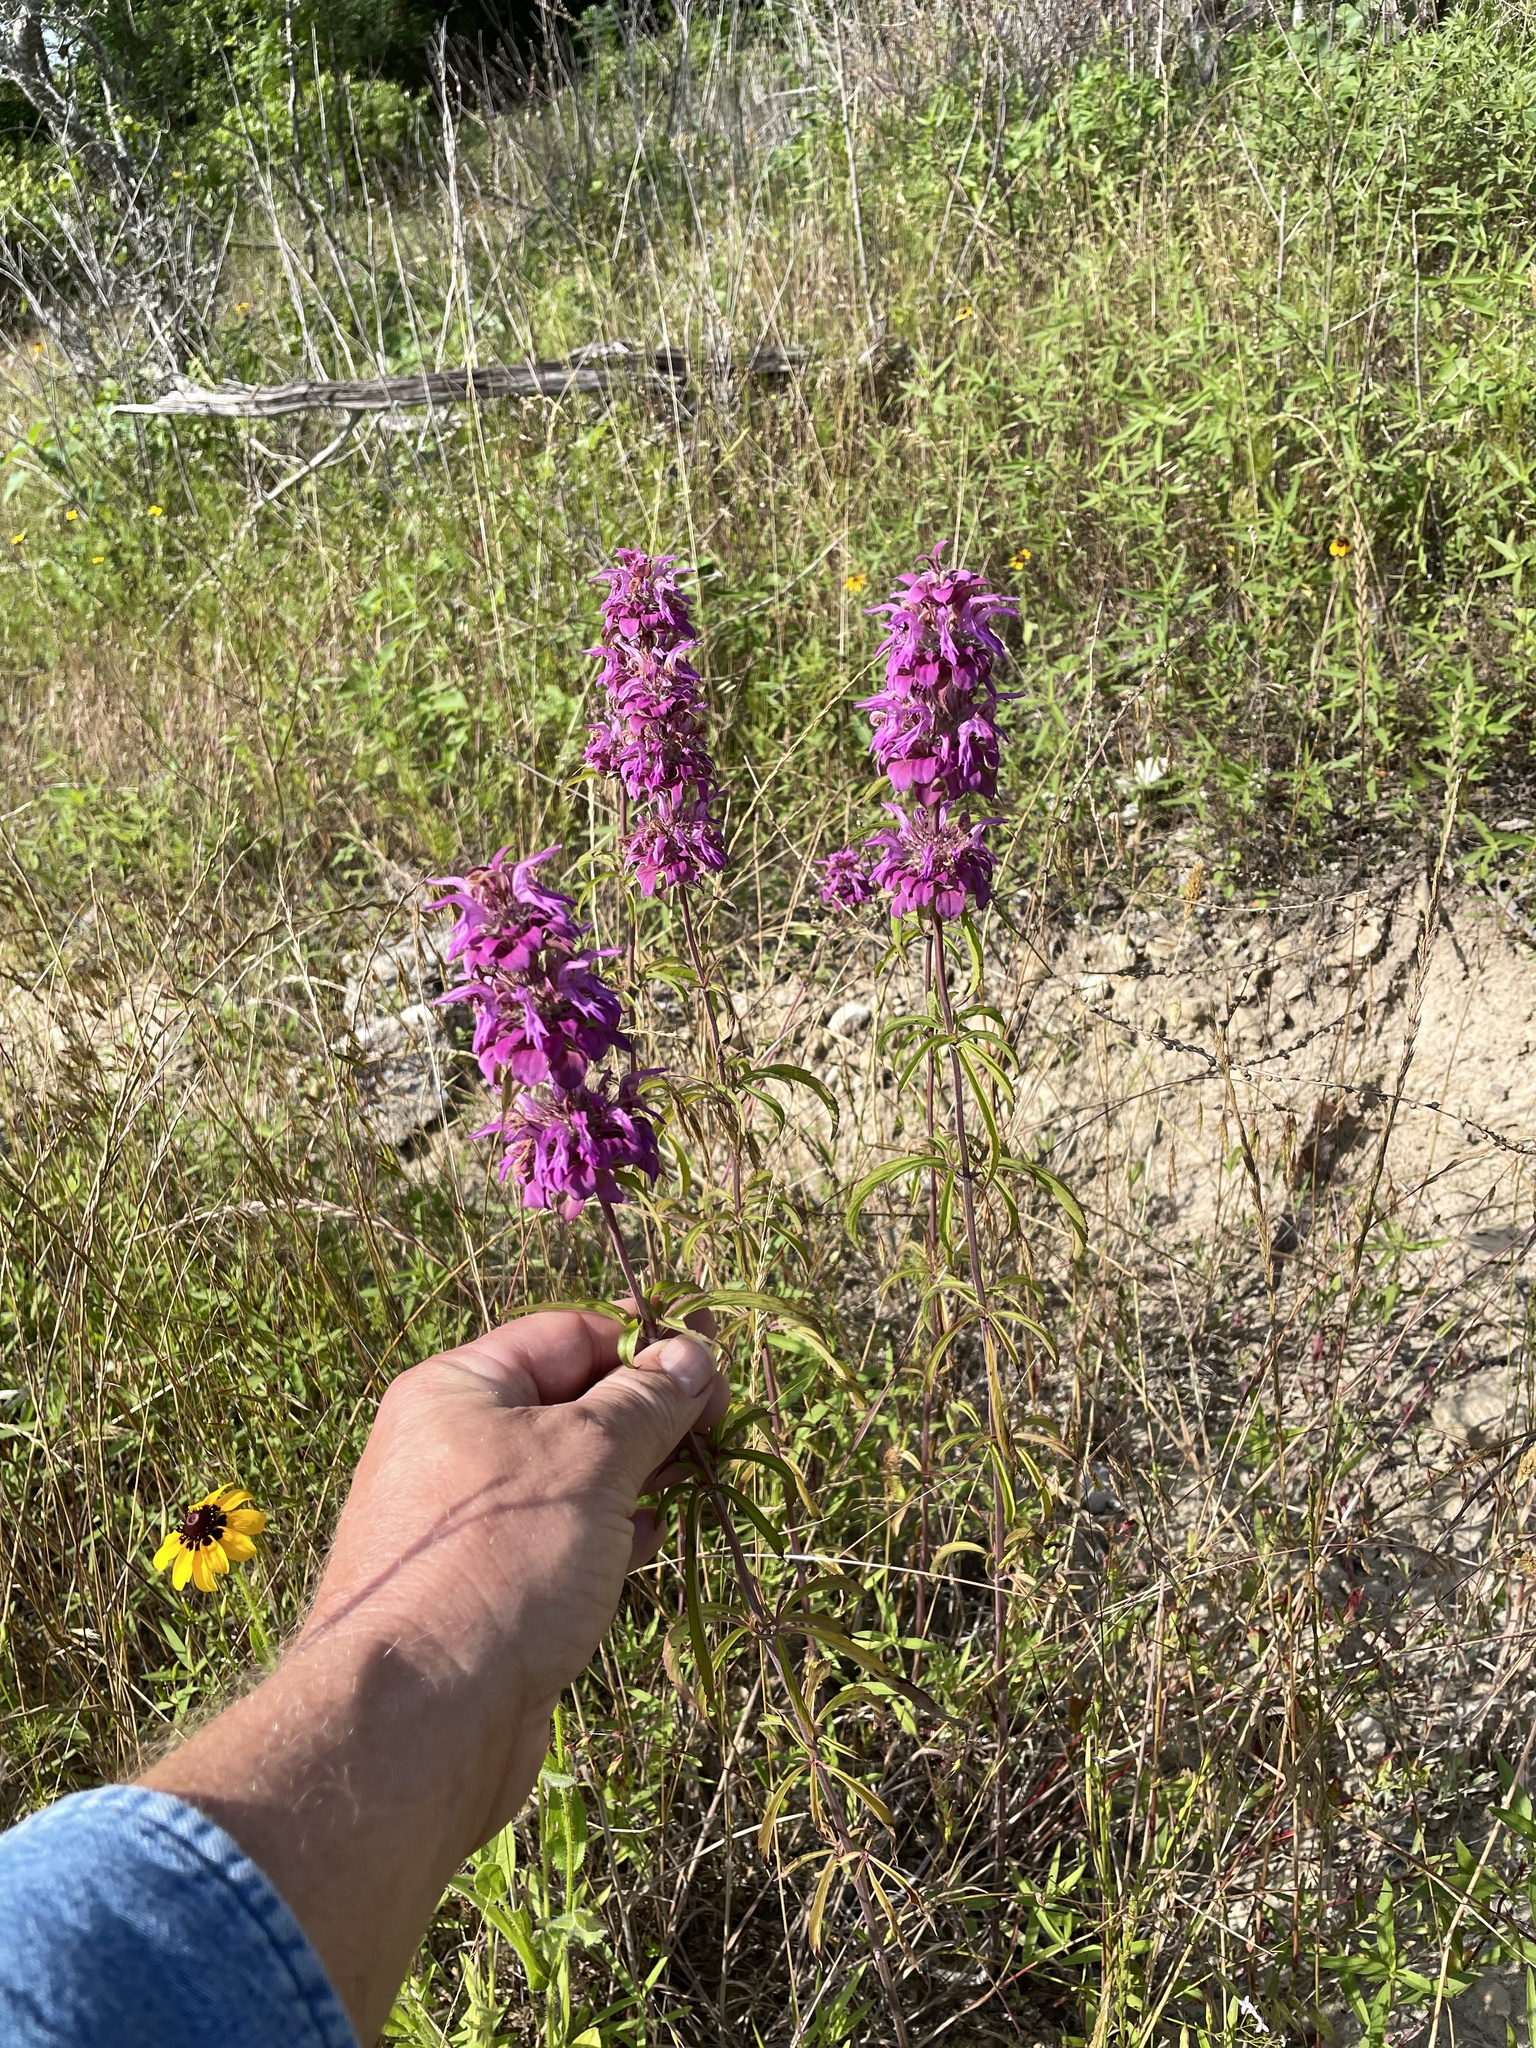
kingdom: Plantae
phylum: Tracheophyta
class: Magnoliopsida
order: Lamiales
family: Lamiaceae
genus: Monarda
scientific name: Monarda citriodora
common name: Lemon beebalm
